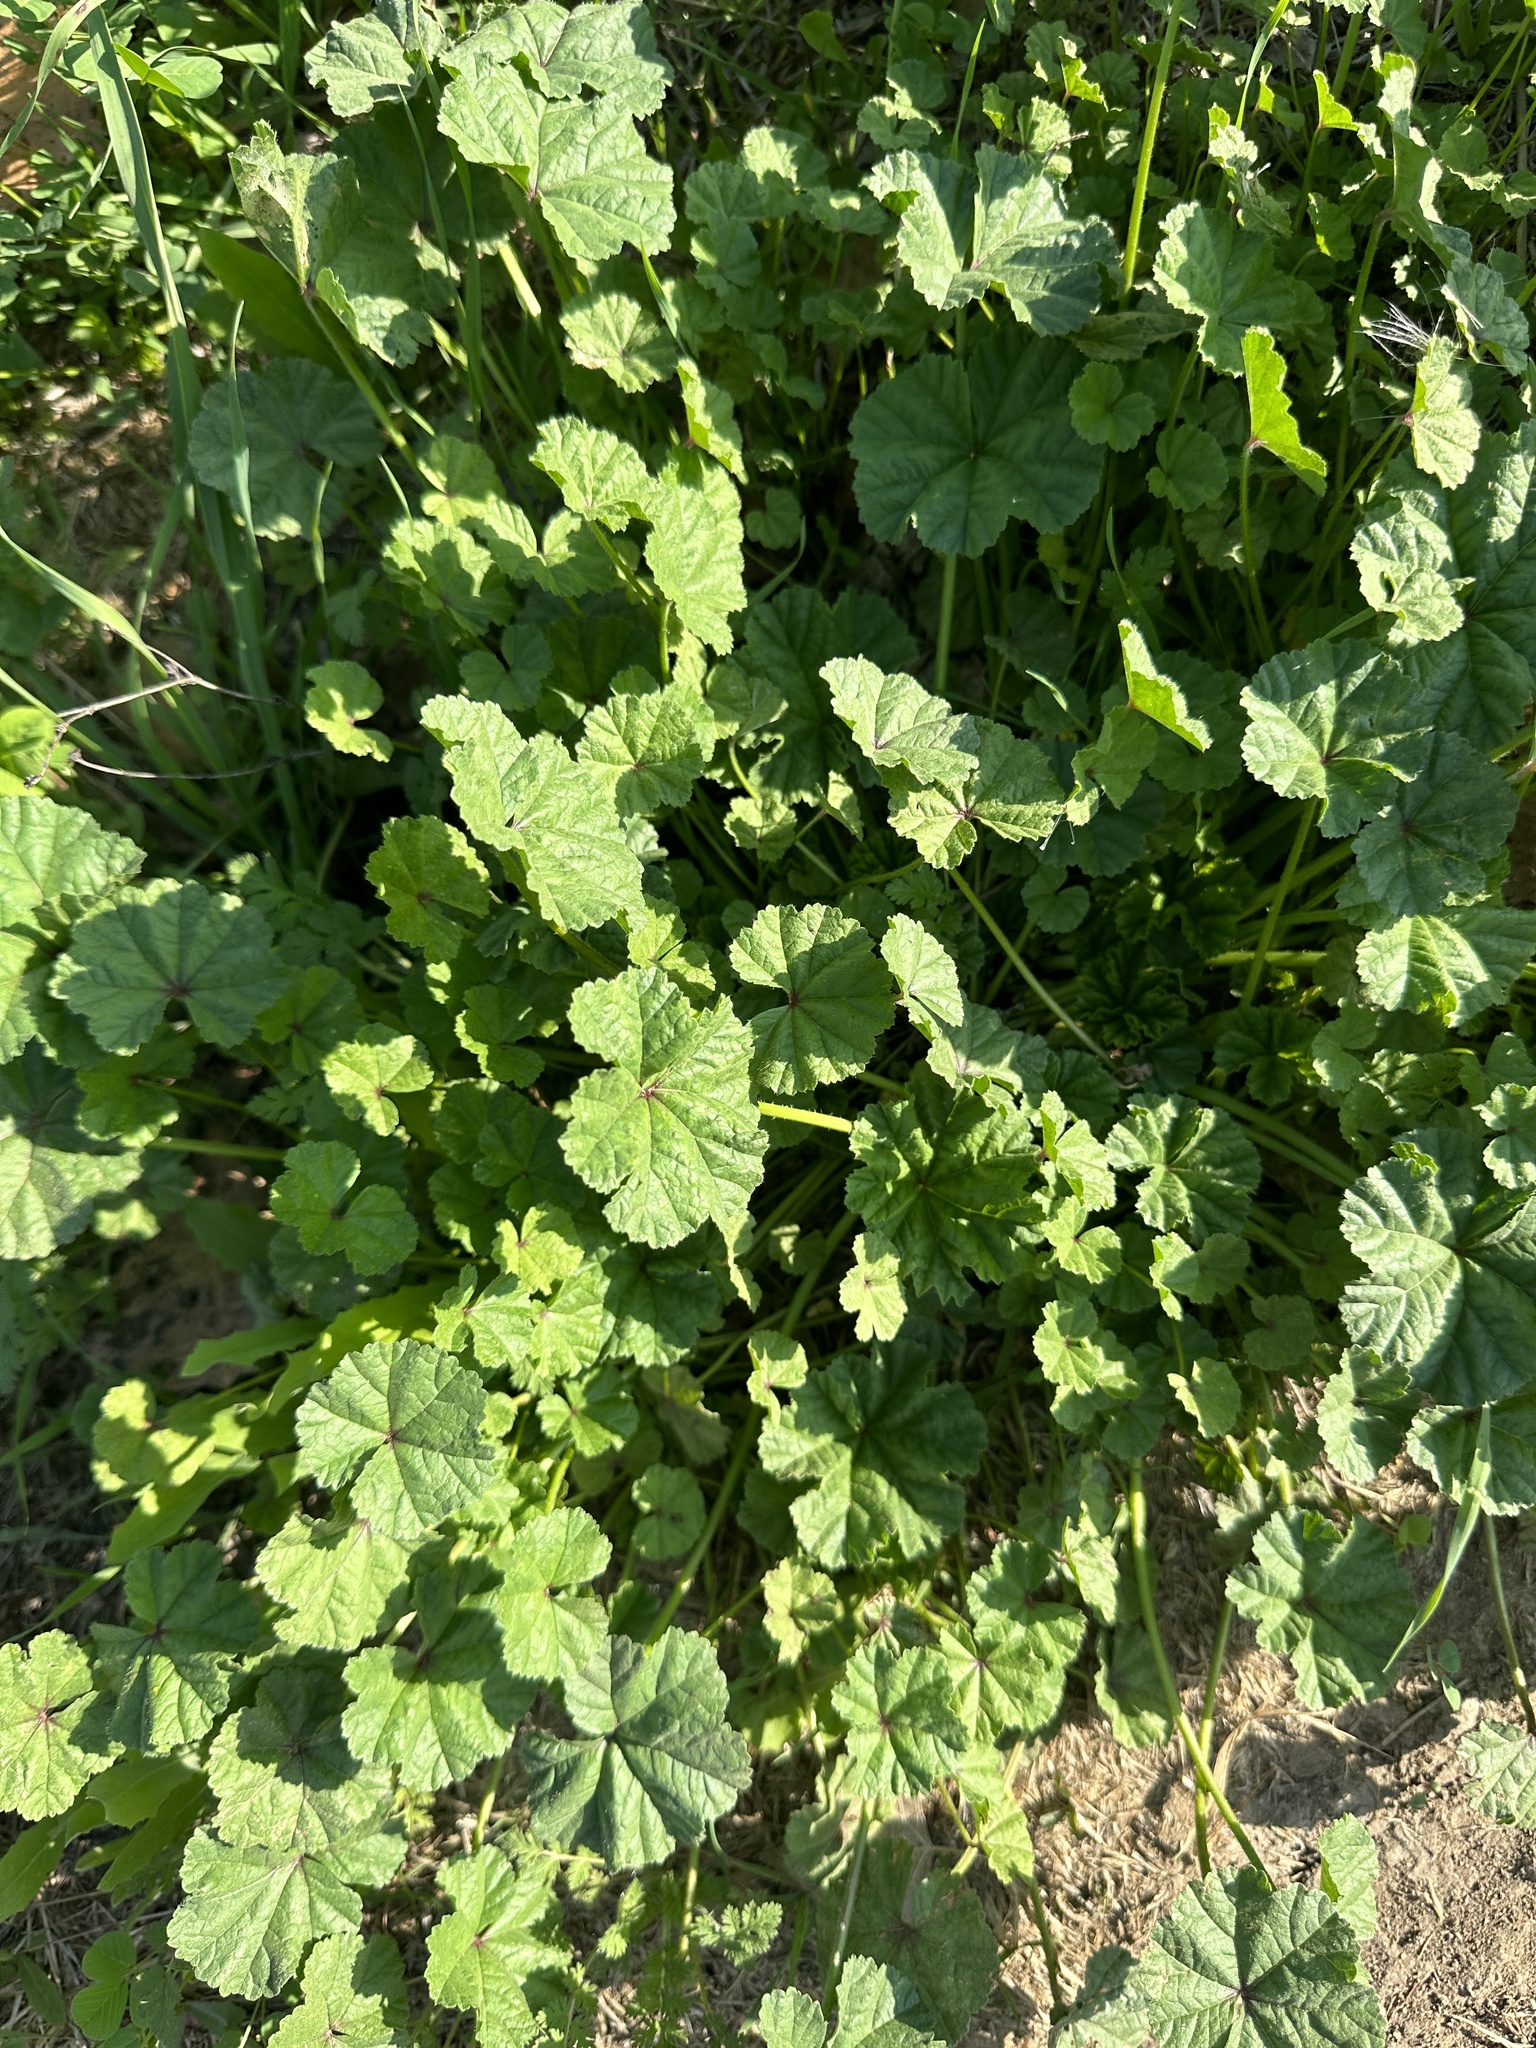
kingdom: Plantae
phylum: Tracheophyta
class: Magnoliopsida
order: Malvales
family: Malvaceae
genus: Malva
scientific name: Malva
